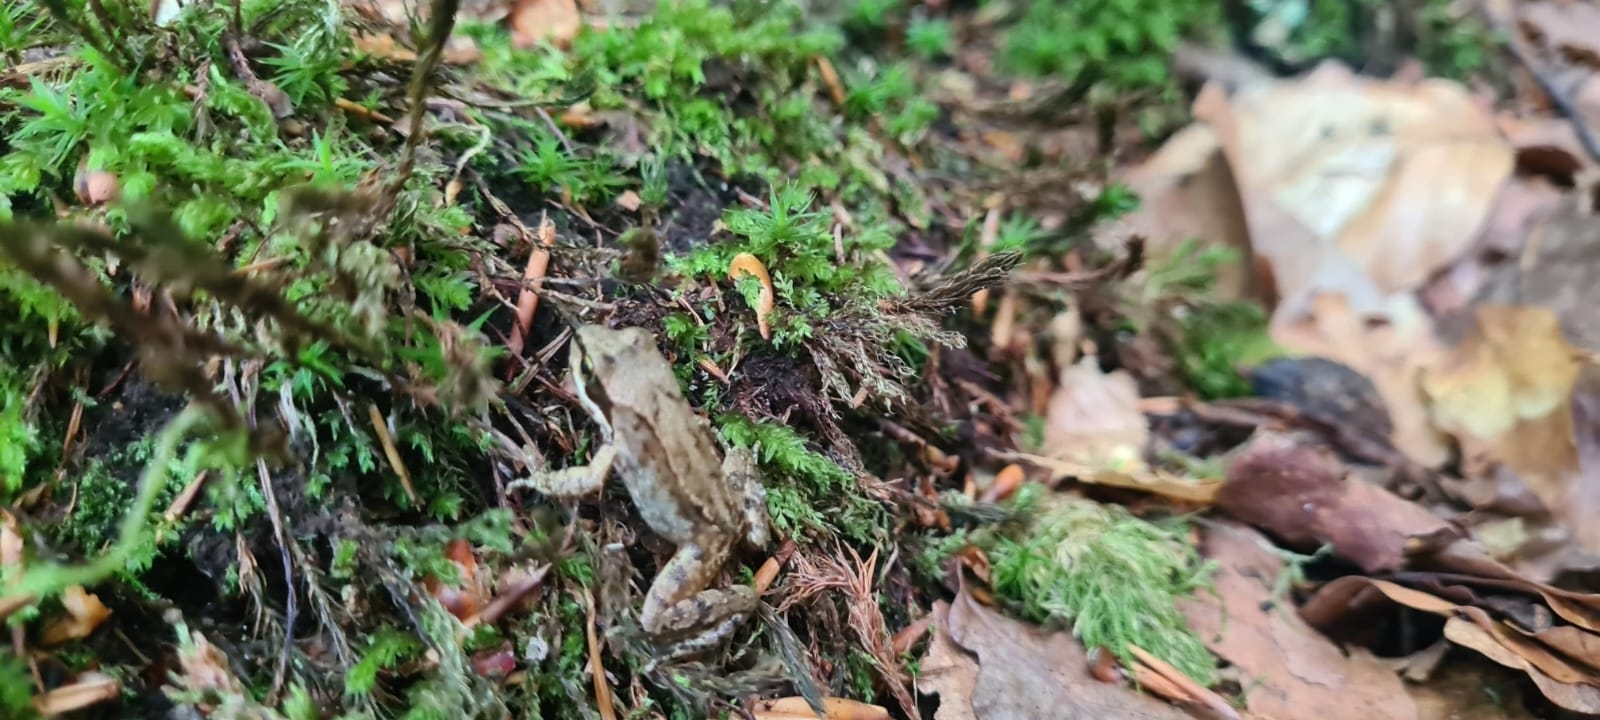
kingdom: Animalia
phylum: Chordata
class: Amphibia
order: Anura
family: Ranidae
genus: Rana
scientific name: Rana temporaria
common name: Common frog
